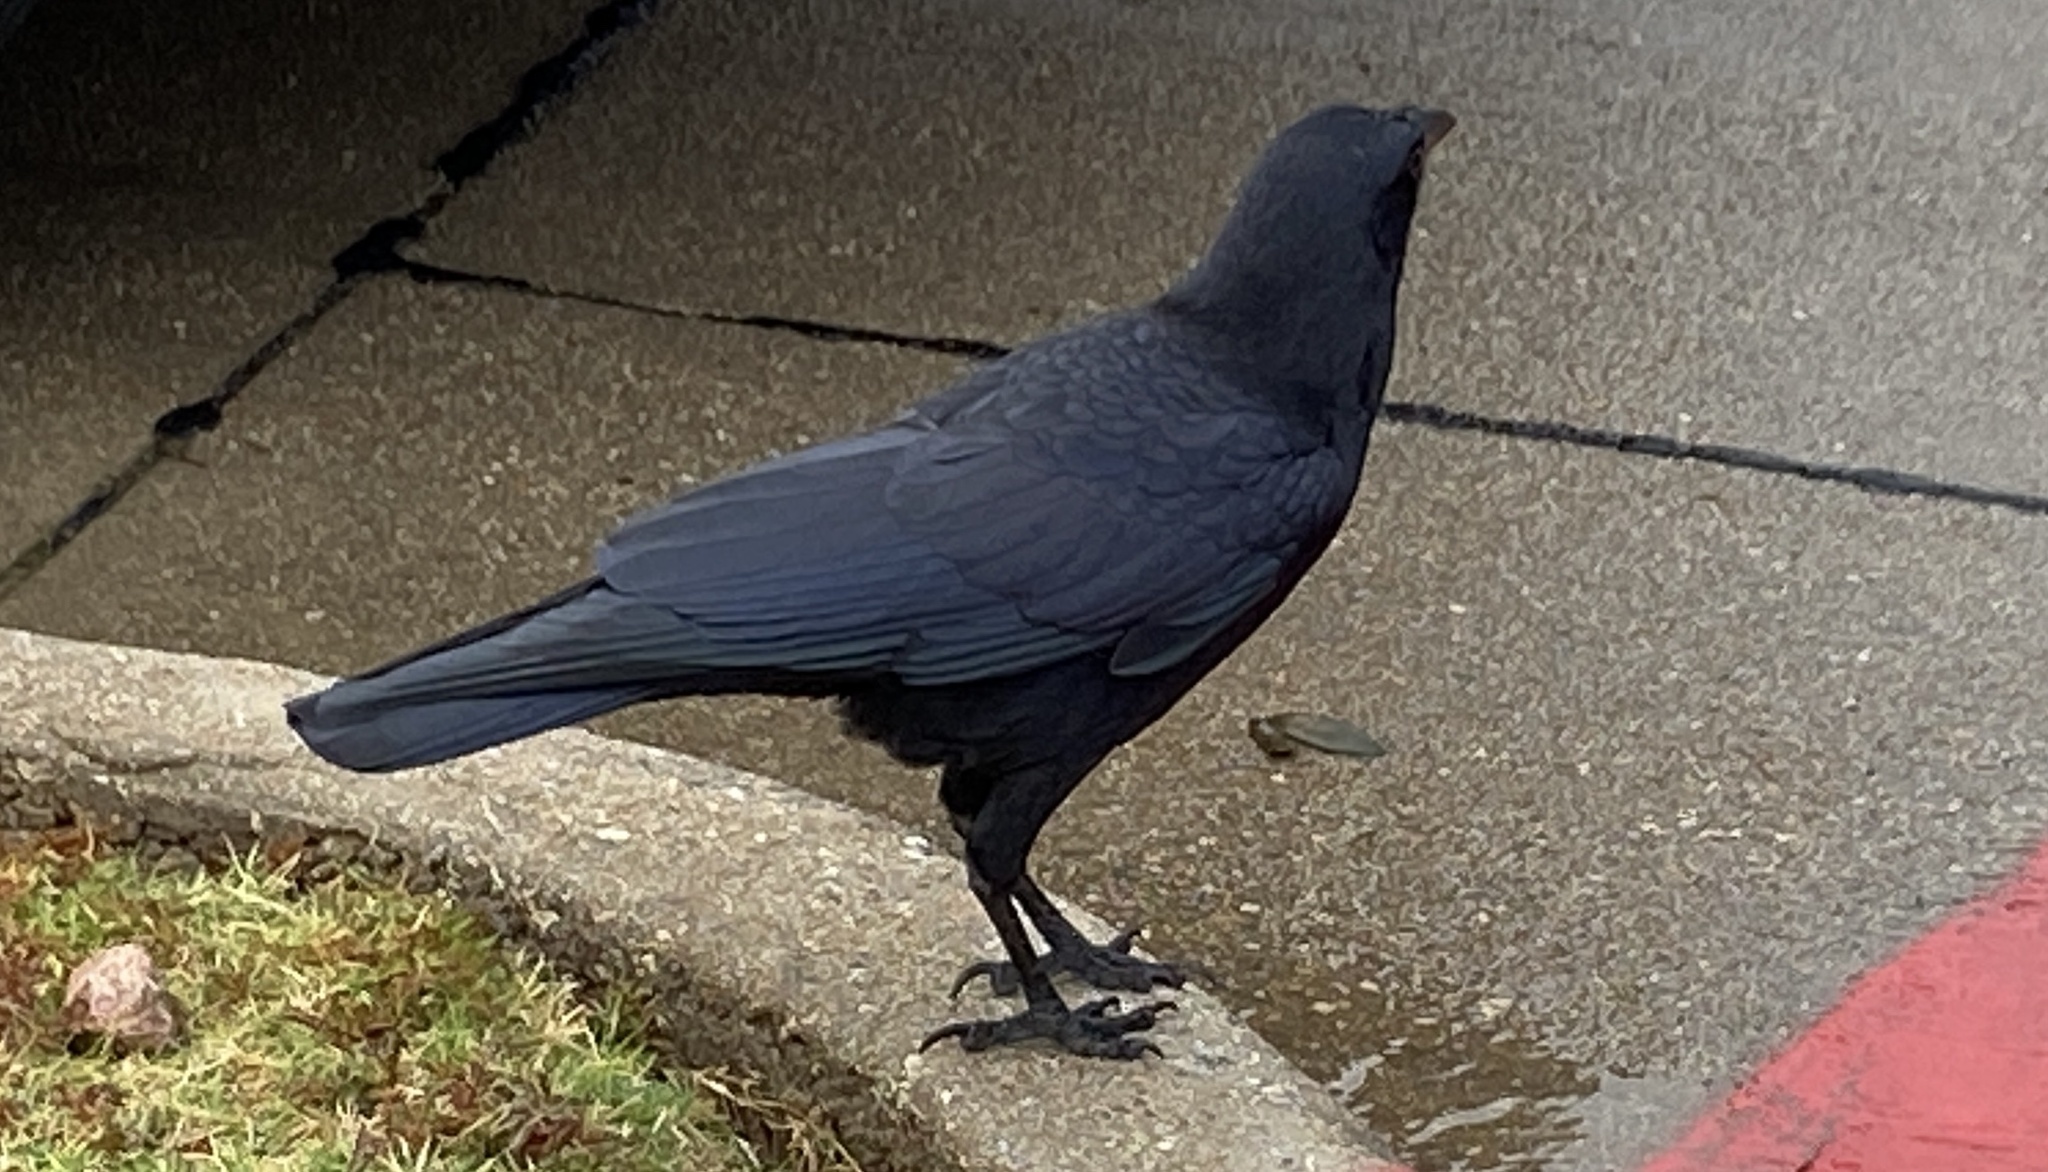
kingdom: Animalia
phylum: Chordata
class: Aves
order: Passeriformes
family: Corvidae
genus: Corvus
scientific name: Corvus brachyrhynchos
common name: American crow
